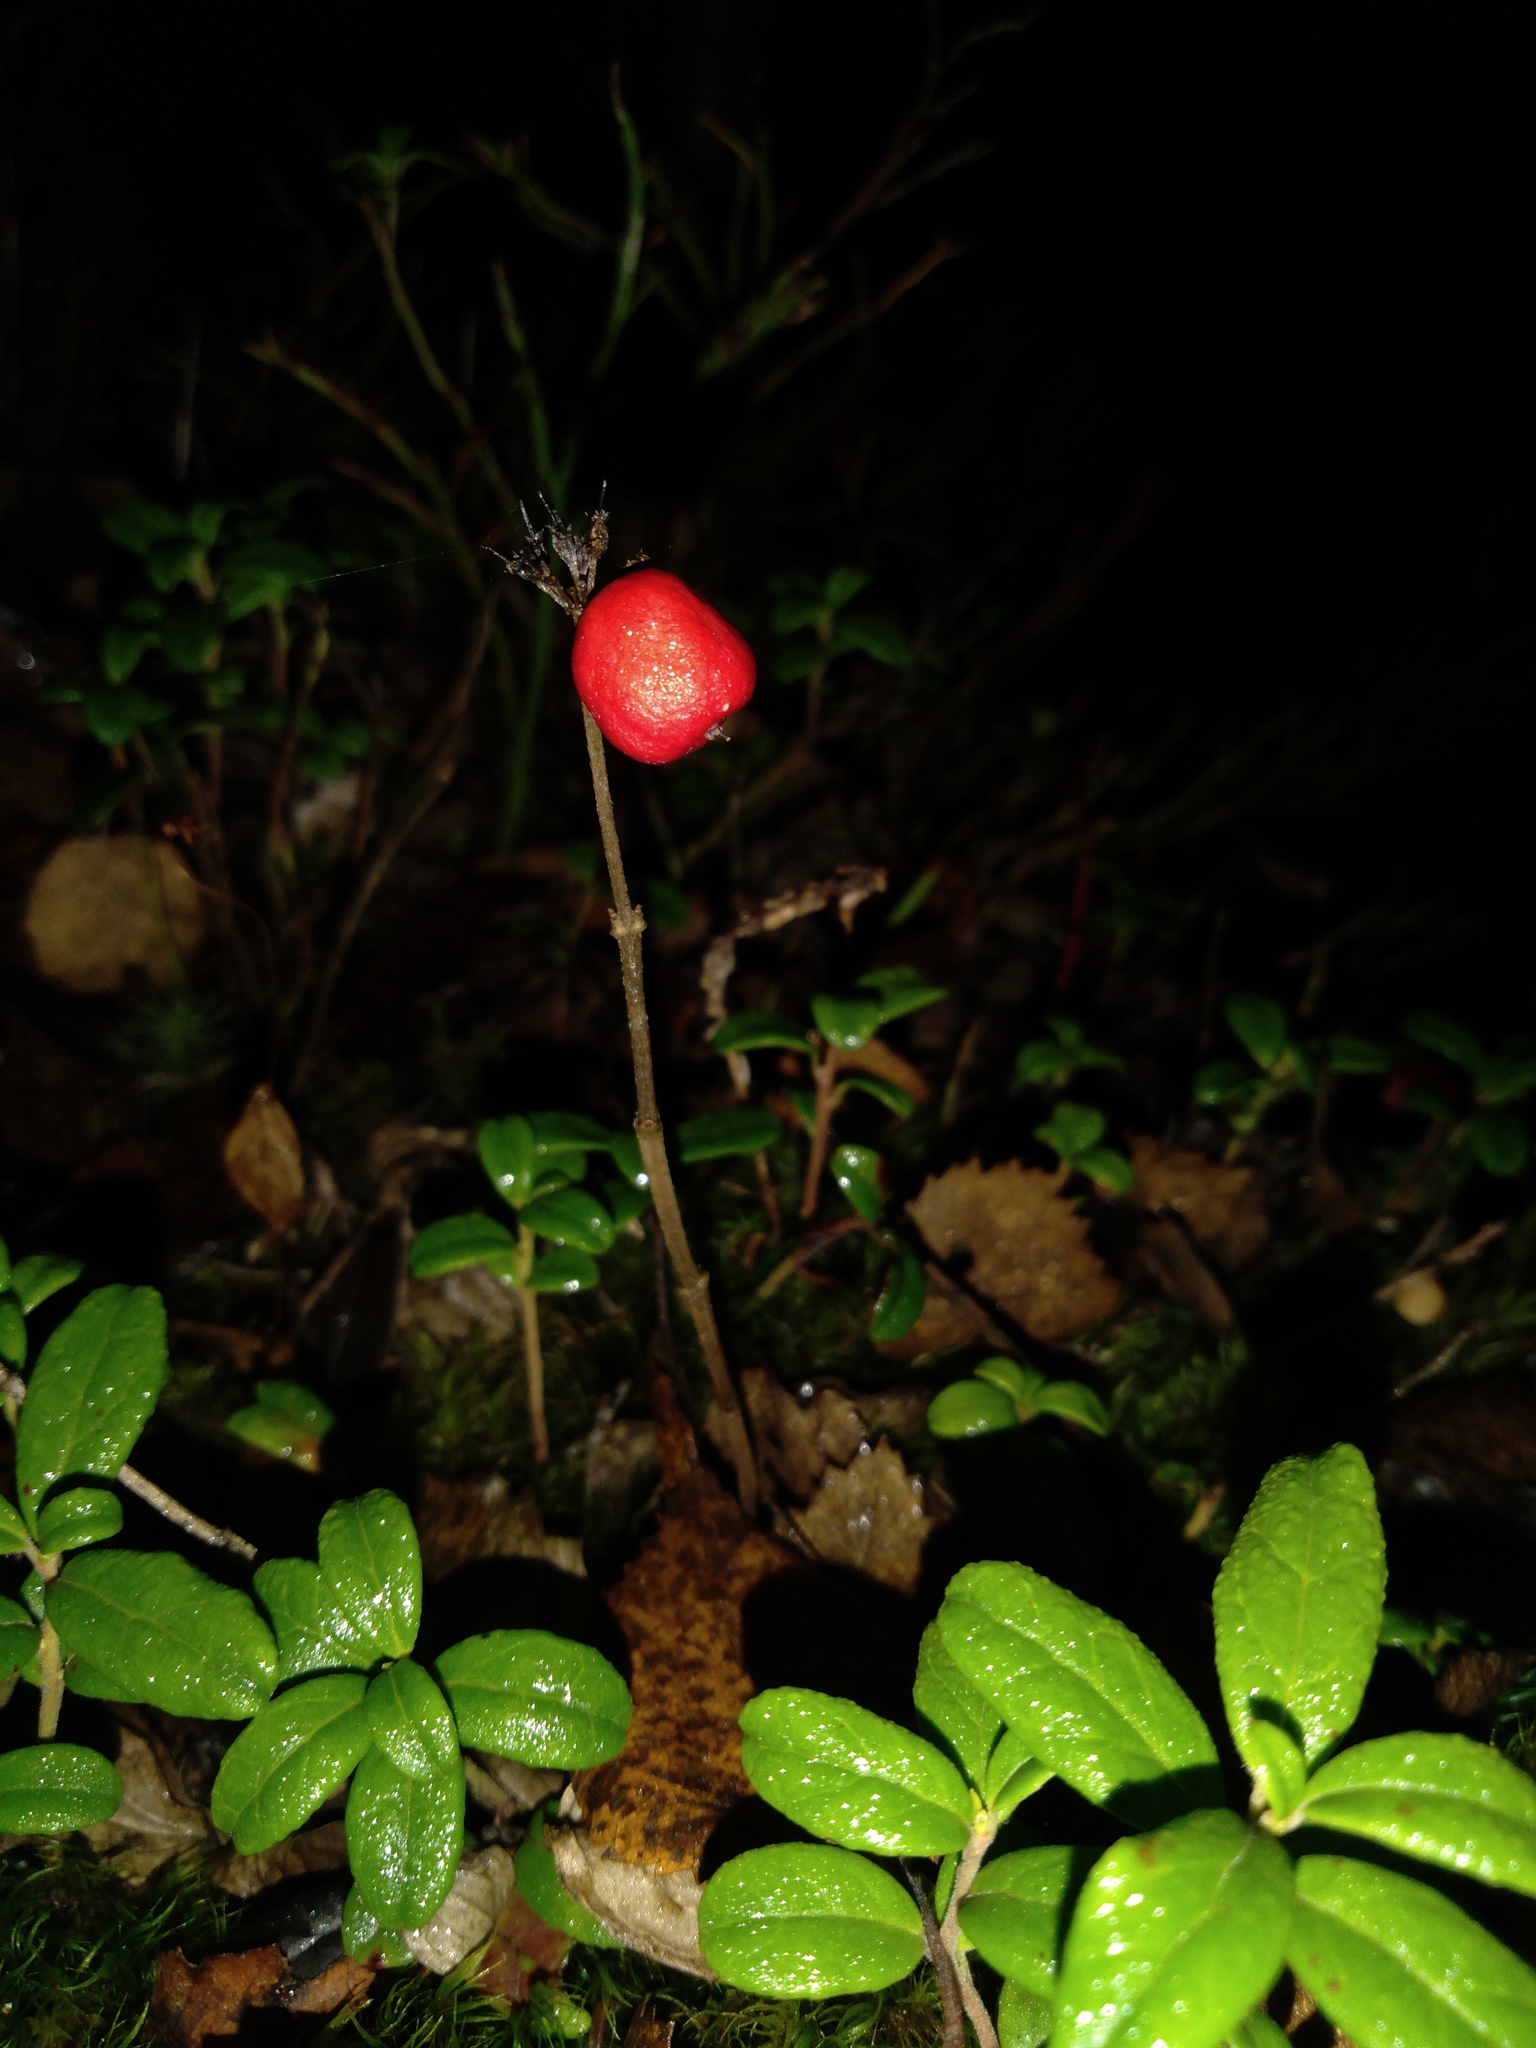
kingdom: Plantae
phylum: Tracheophyta
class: Magnoliopsida
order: Cornales
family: Cornaceae
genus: Cornus
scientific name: Cornus suecica
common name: Dwarf cornel
